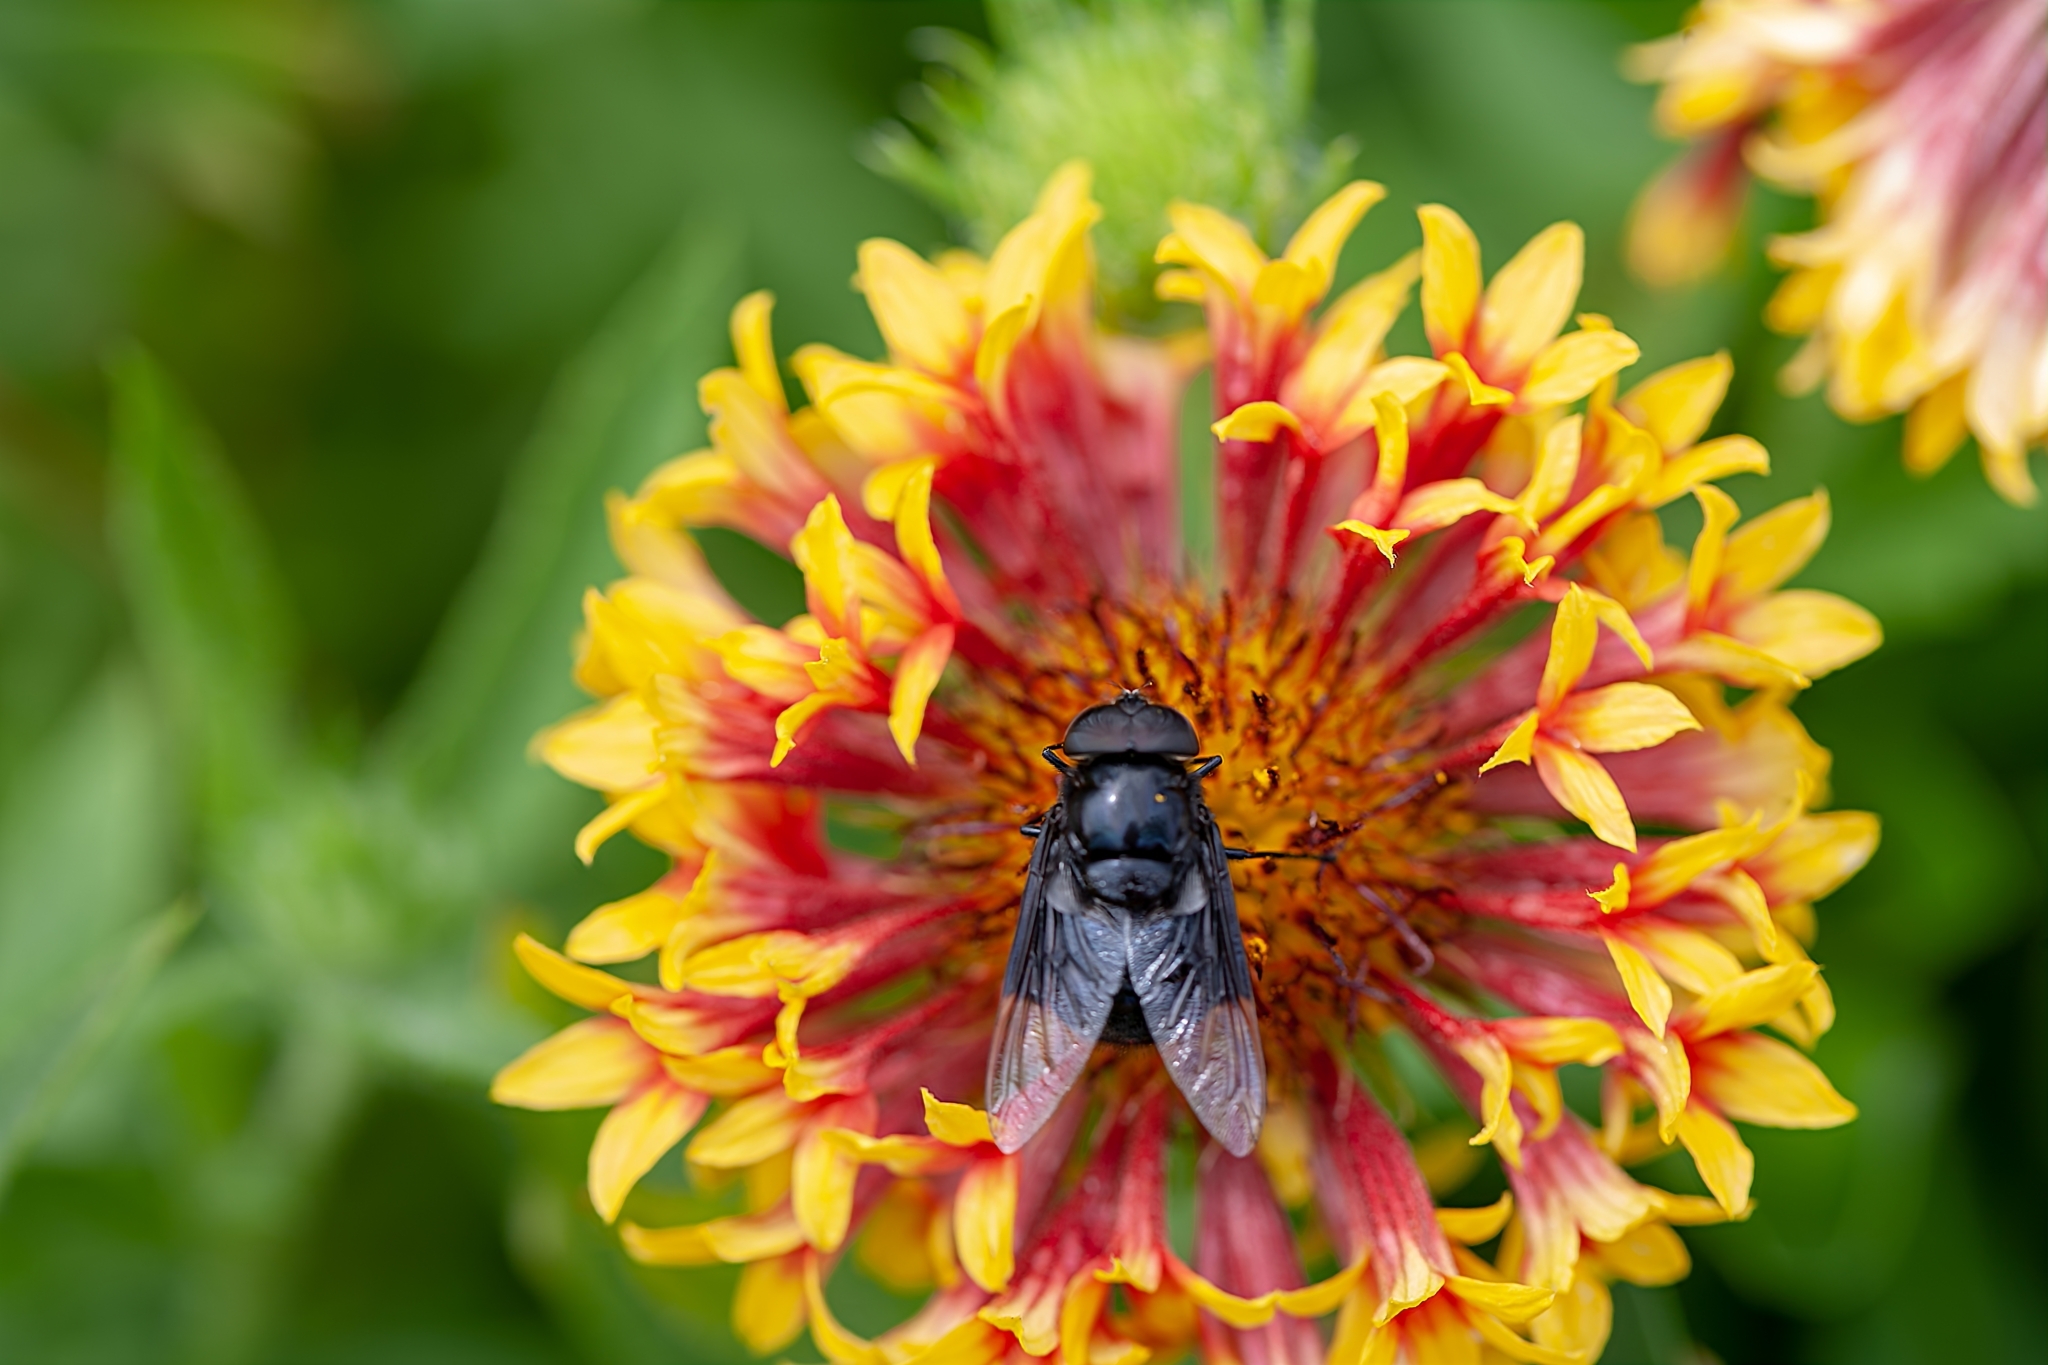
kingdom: Animalia
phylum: Arthropoda
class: Insecta
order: Diptera
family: Syrphidae
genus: Copestylum
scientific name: Copestylum mexicanum
